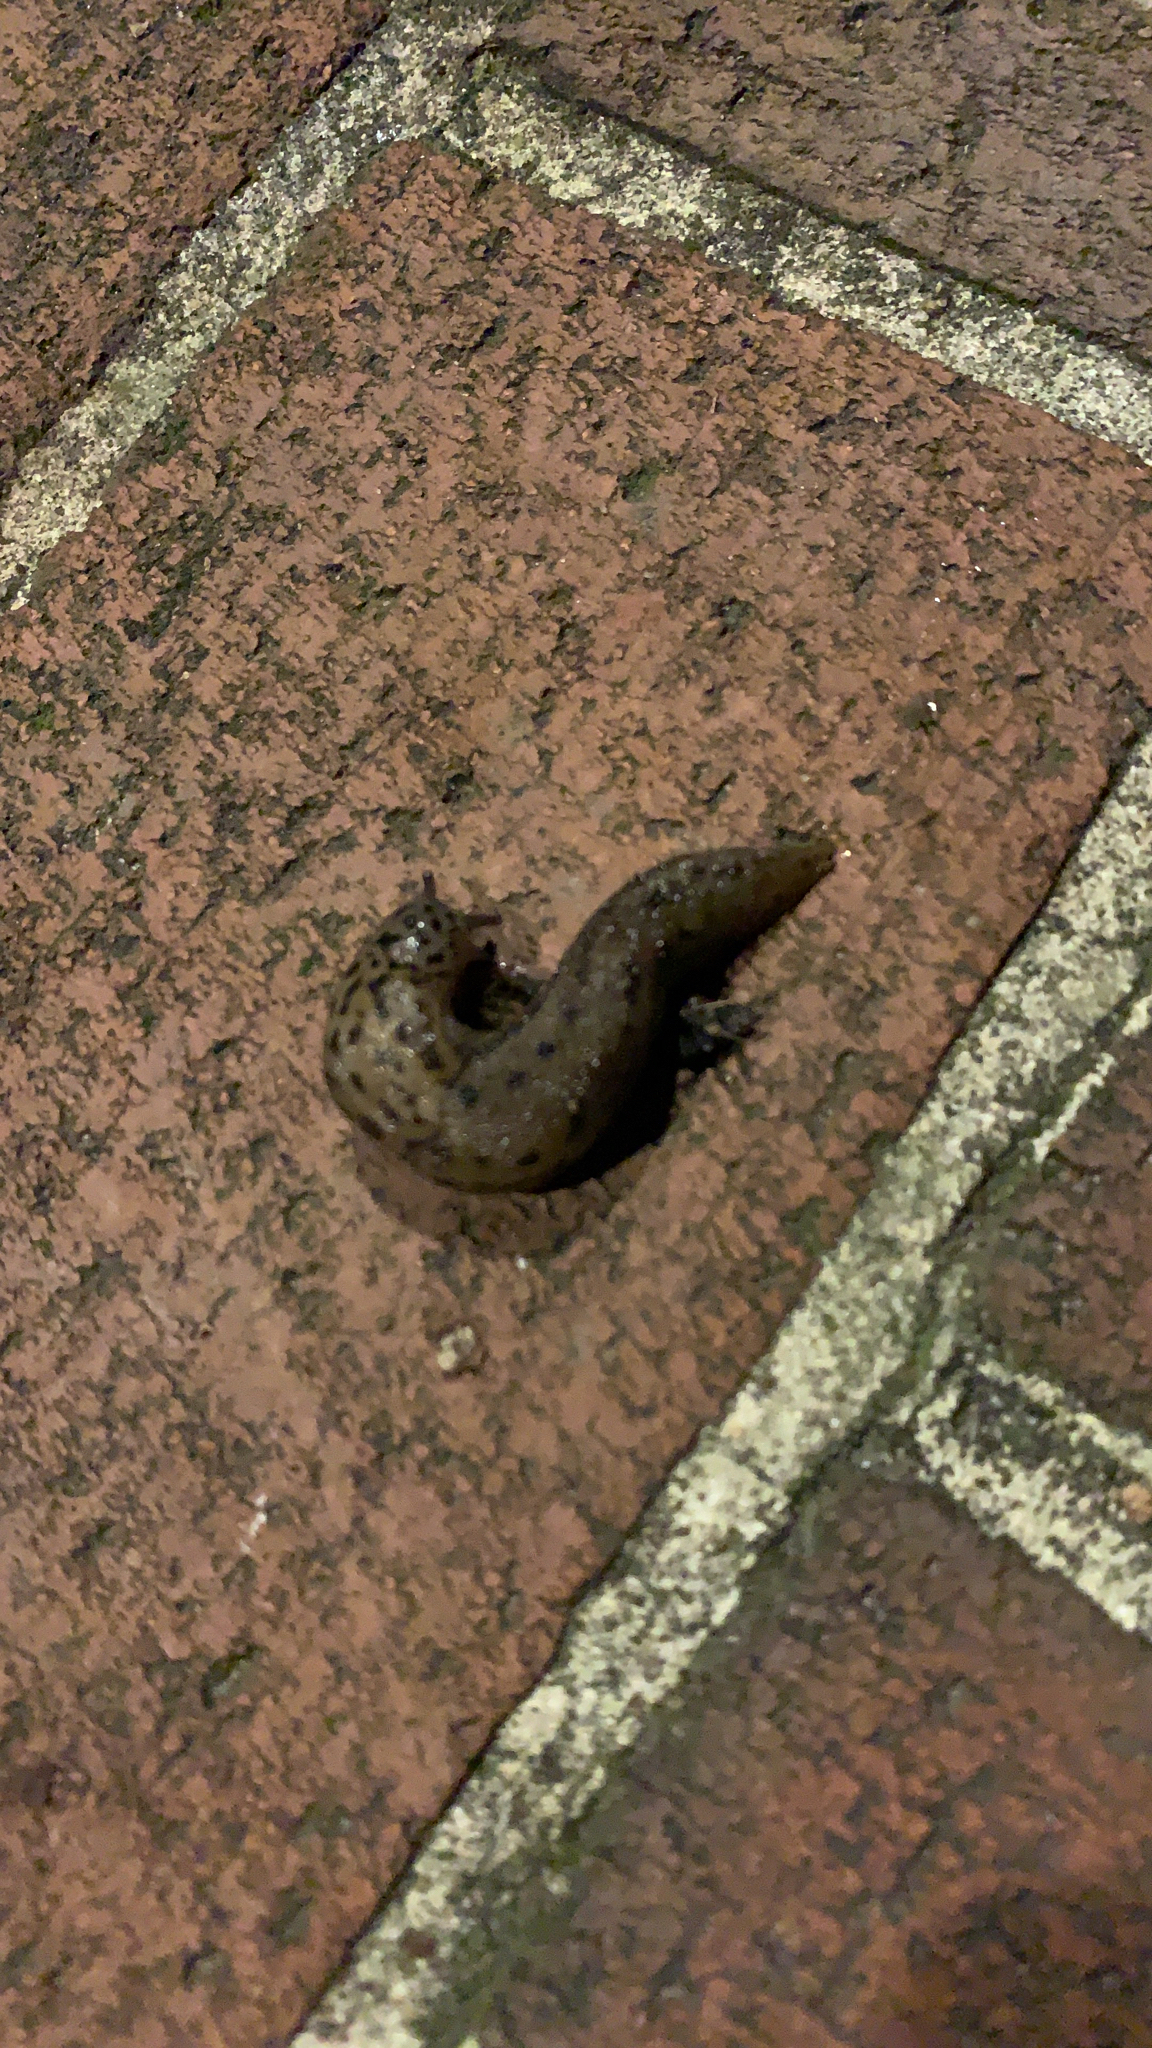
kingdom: Animalia
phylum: Mollusca
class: Gastropoda
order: Stylommatophora
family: Limacidae
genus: Limax
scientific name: Limax maximus
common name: Great grey slug
